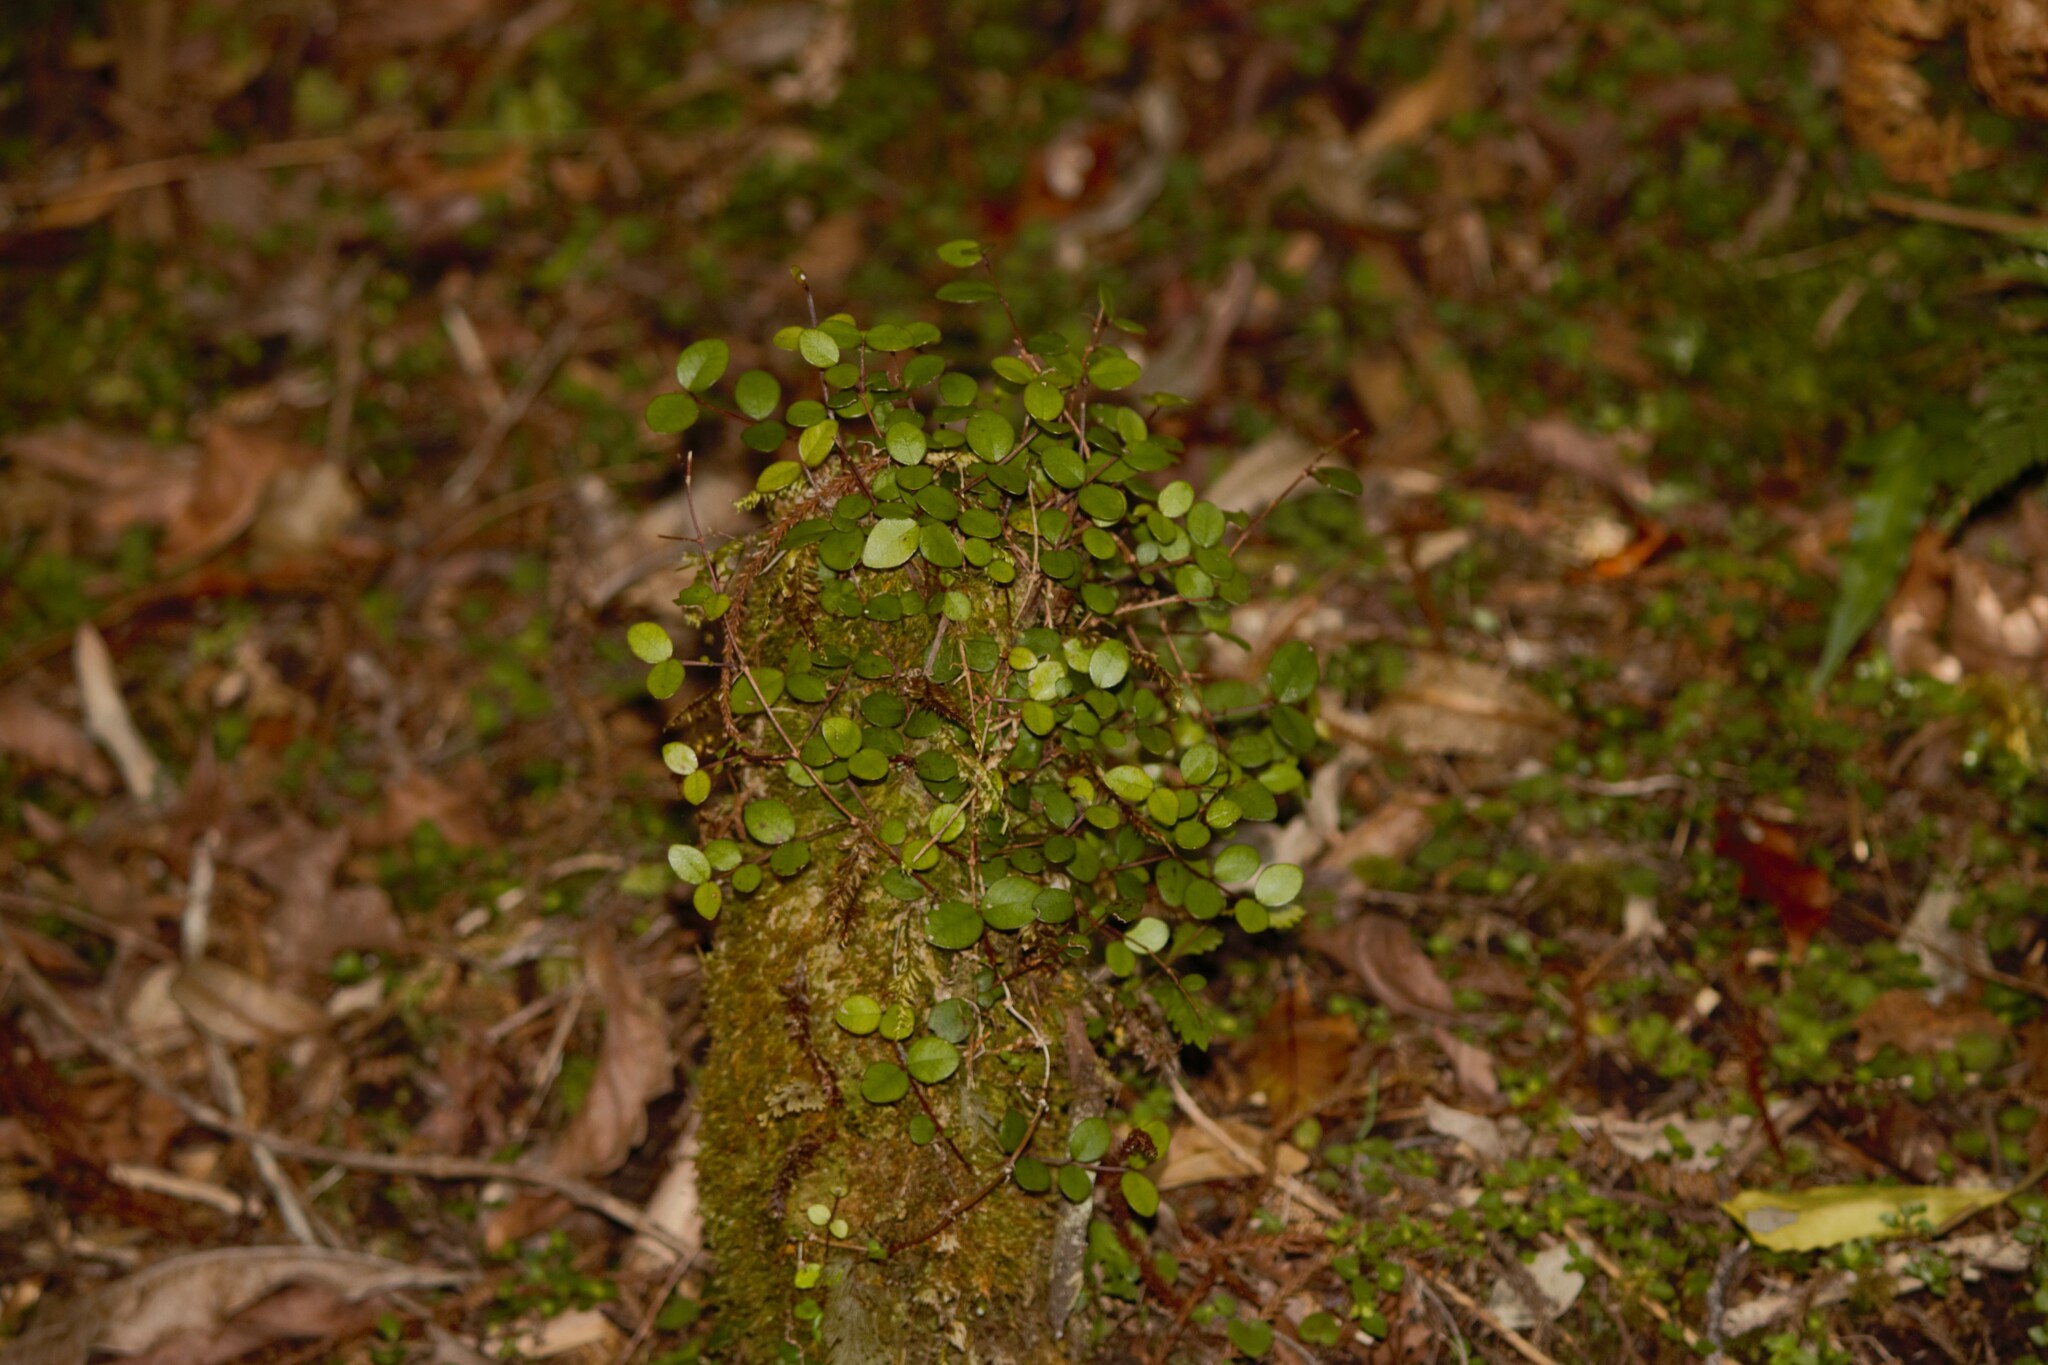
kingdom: Plantae
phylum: Tracheophyta
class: Magnoliopsida
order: Myrtales
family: Myrtaceae
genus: Metrosideros
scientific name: Metrosideros fulgens
